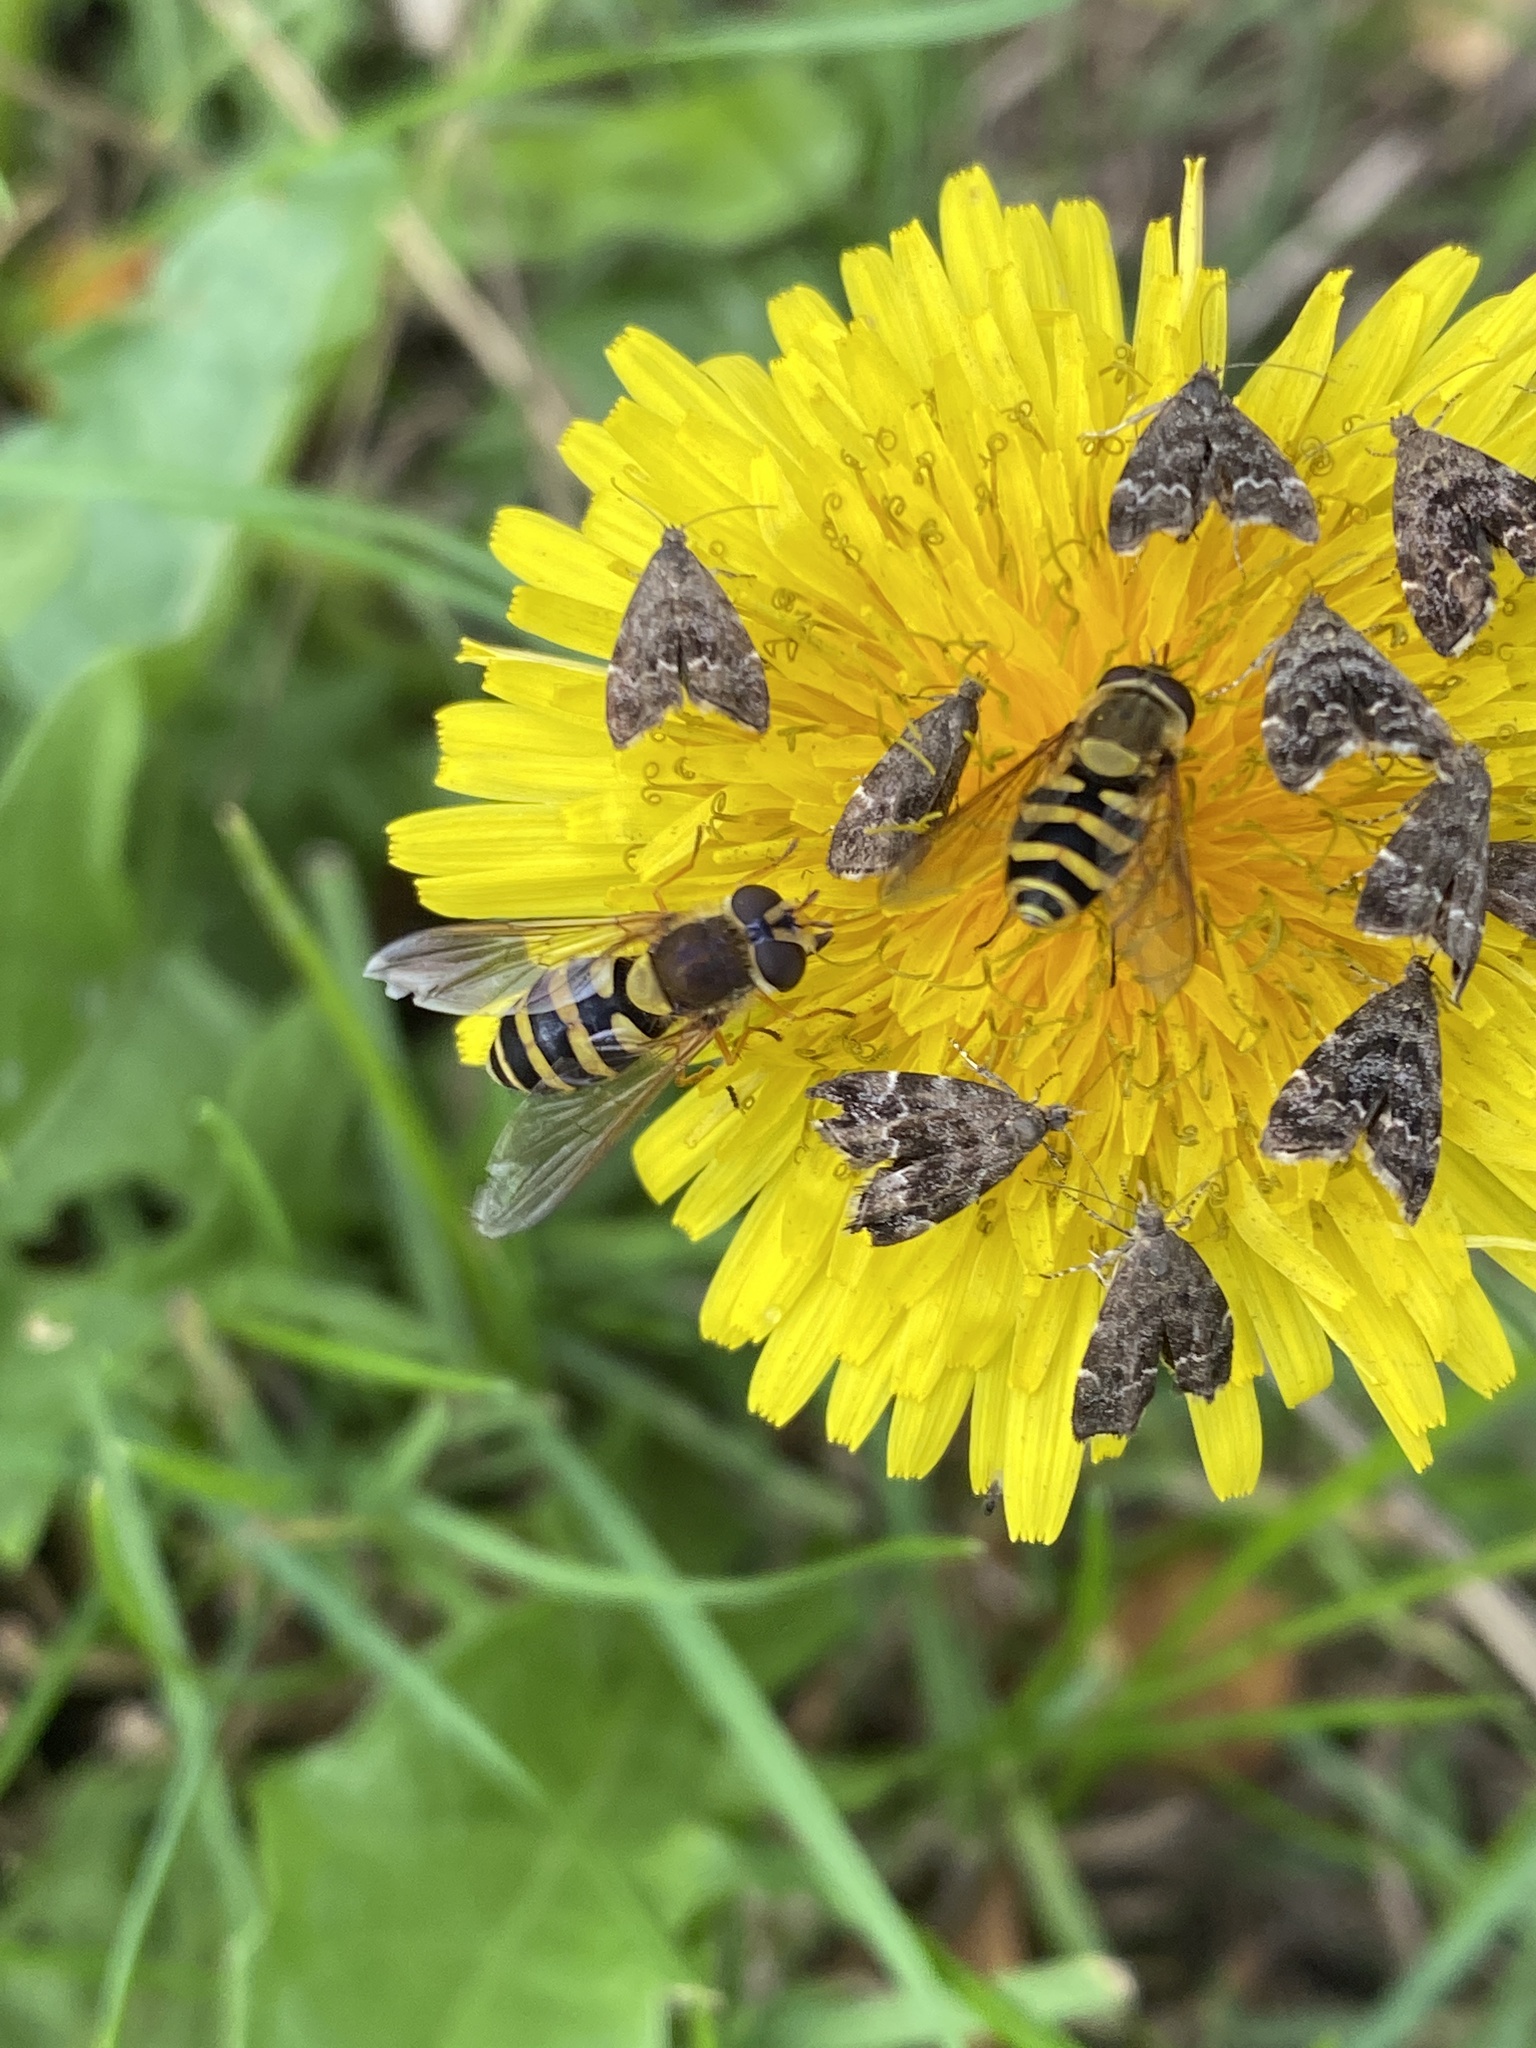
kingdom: Animalia
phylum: Arthropoda
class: Insecta
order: Diptera
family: Syrphidae
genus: Syrphus
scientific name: Syrphus
